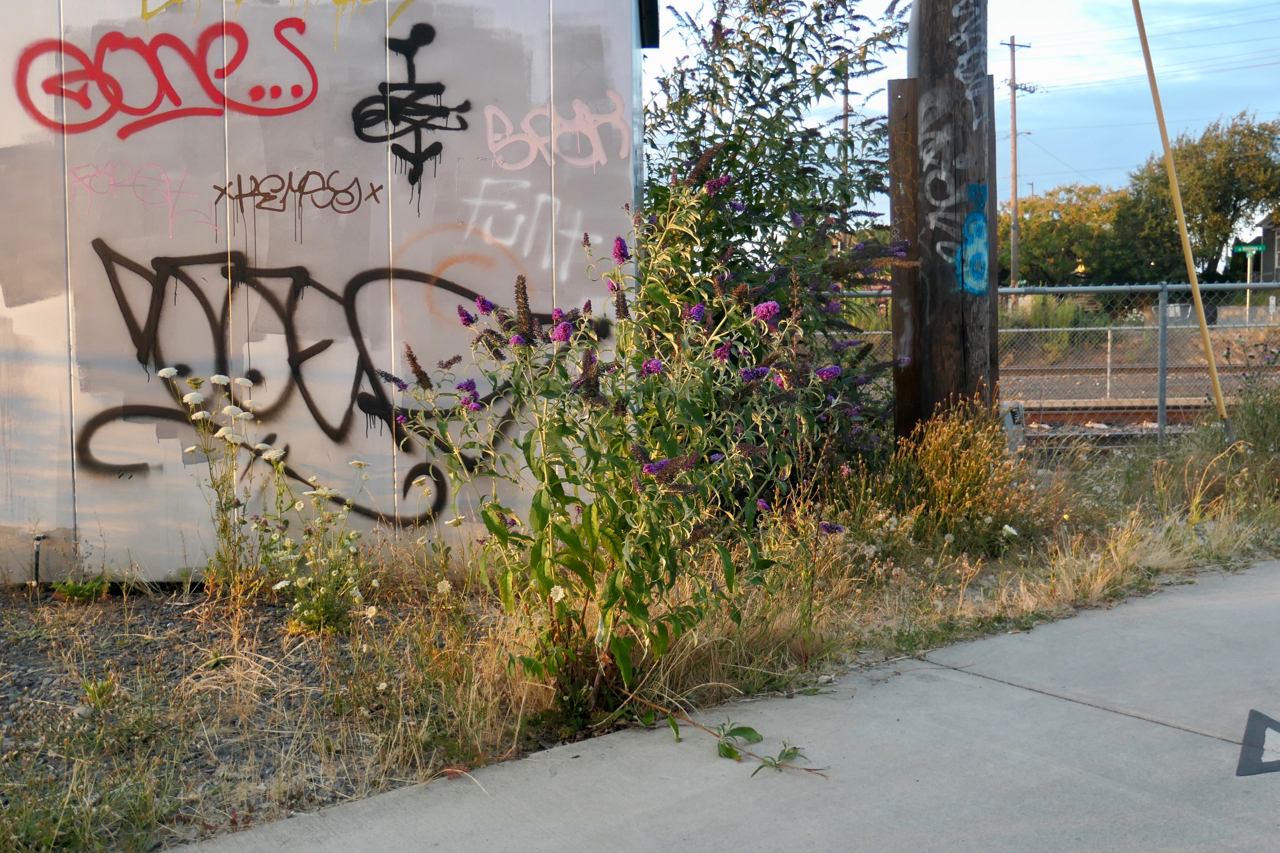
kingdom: Plantae
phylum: Tracheophyta
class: Magnoliopsida
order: Lamiales
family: Scrophulariaceae
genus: Buddleja
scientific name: Buddleja davidii
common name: Butterfly-bush
